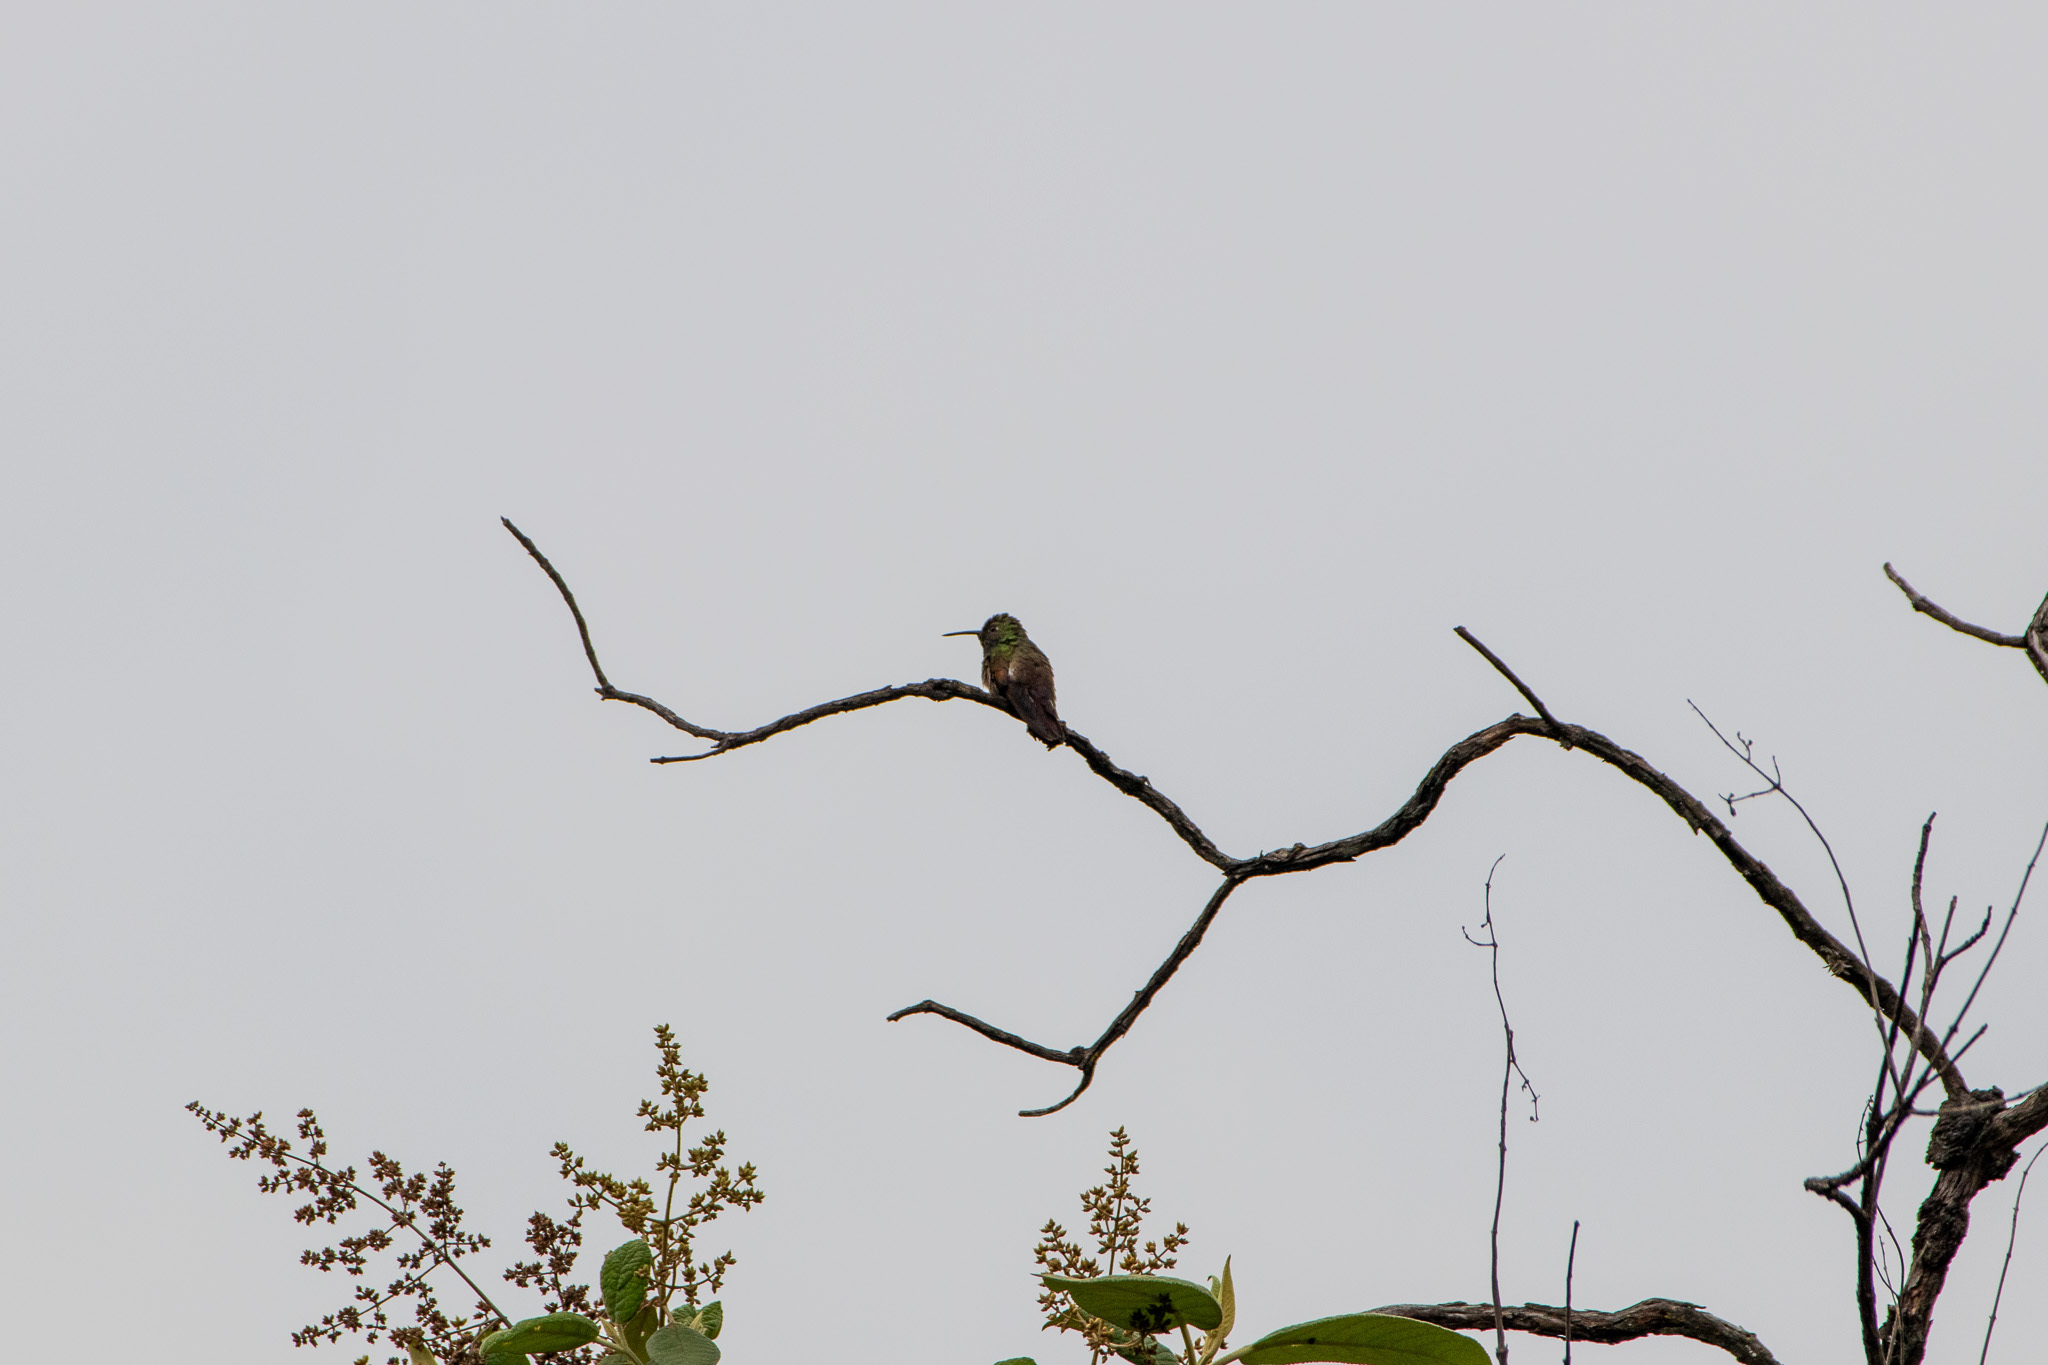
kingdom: Animalia
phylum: Chordata
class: Aves
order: Apodiformes
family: Trochilidae
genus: Saucerottia
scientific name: Saucerottia beryllina
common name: Berylline hummingbird
